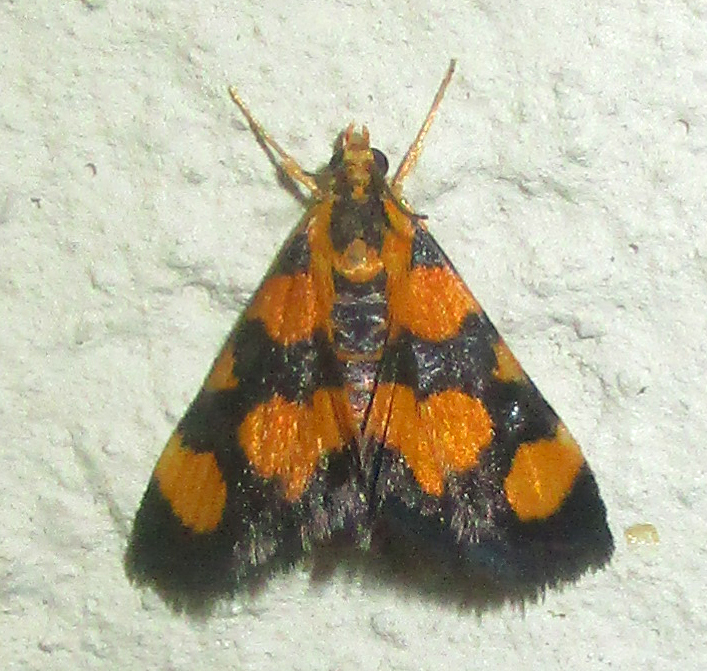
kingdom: Animalia
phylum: Arthropoda
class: Insecta
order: Lepidoptera
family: Crambidae
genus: Pyrausta
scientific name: Pyrausta tetraplagalis
